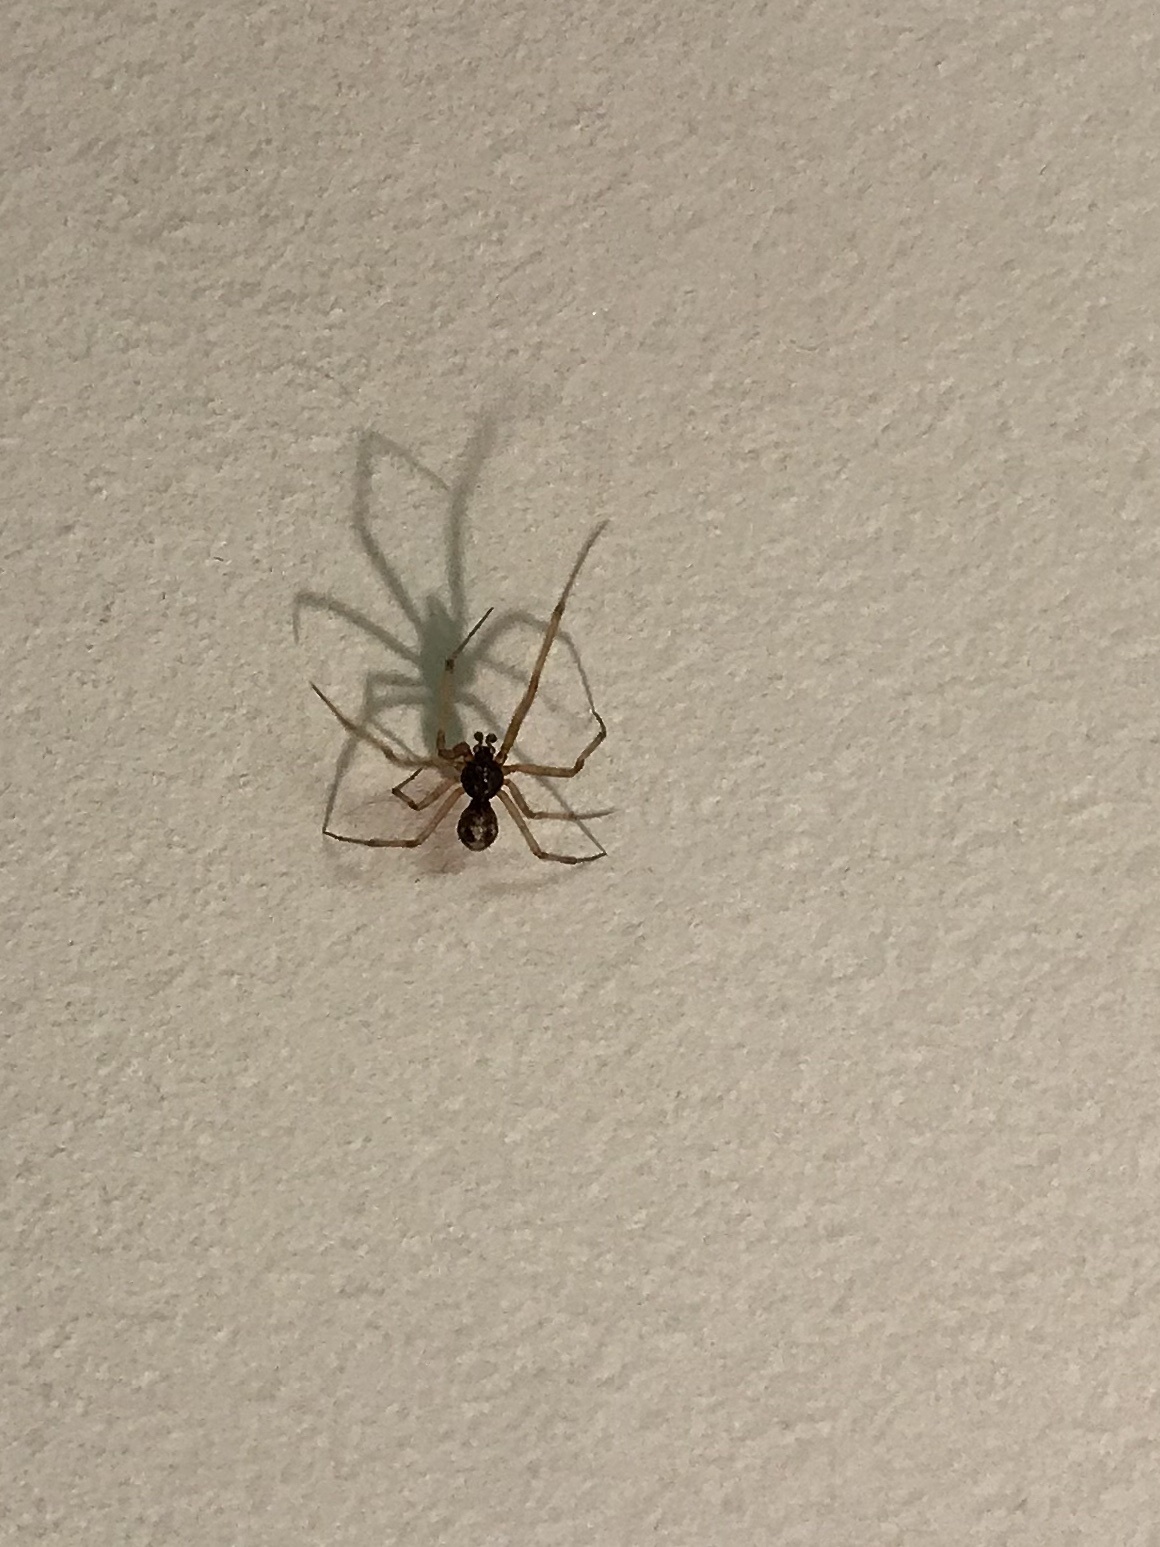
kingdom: Animalia
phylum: Arthropoda
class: Arachnida
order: Araneae
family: Theridiidae
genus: Steatoda
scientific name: Steatoda triangulosa
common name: Triangulate bud spider
